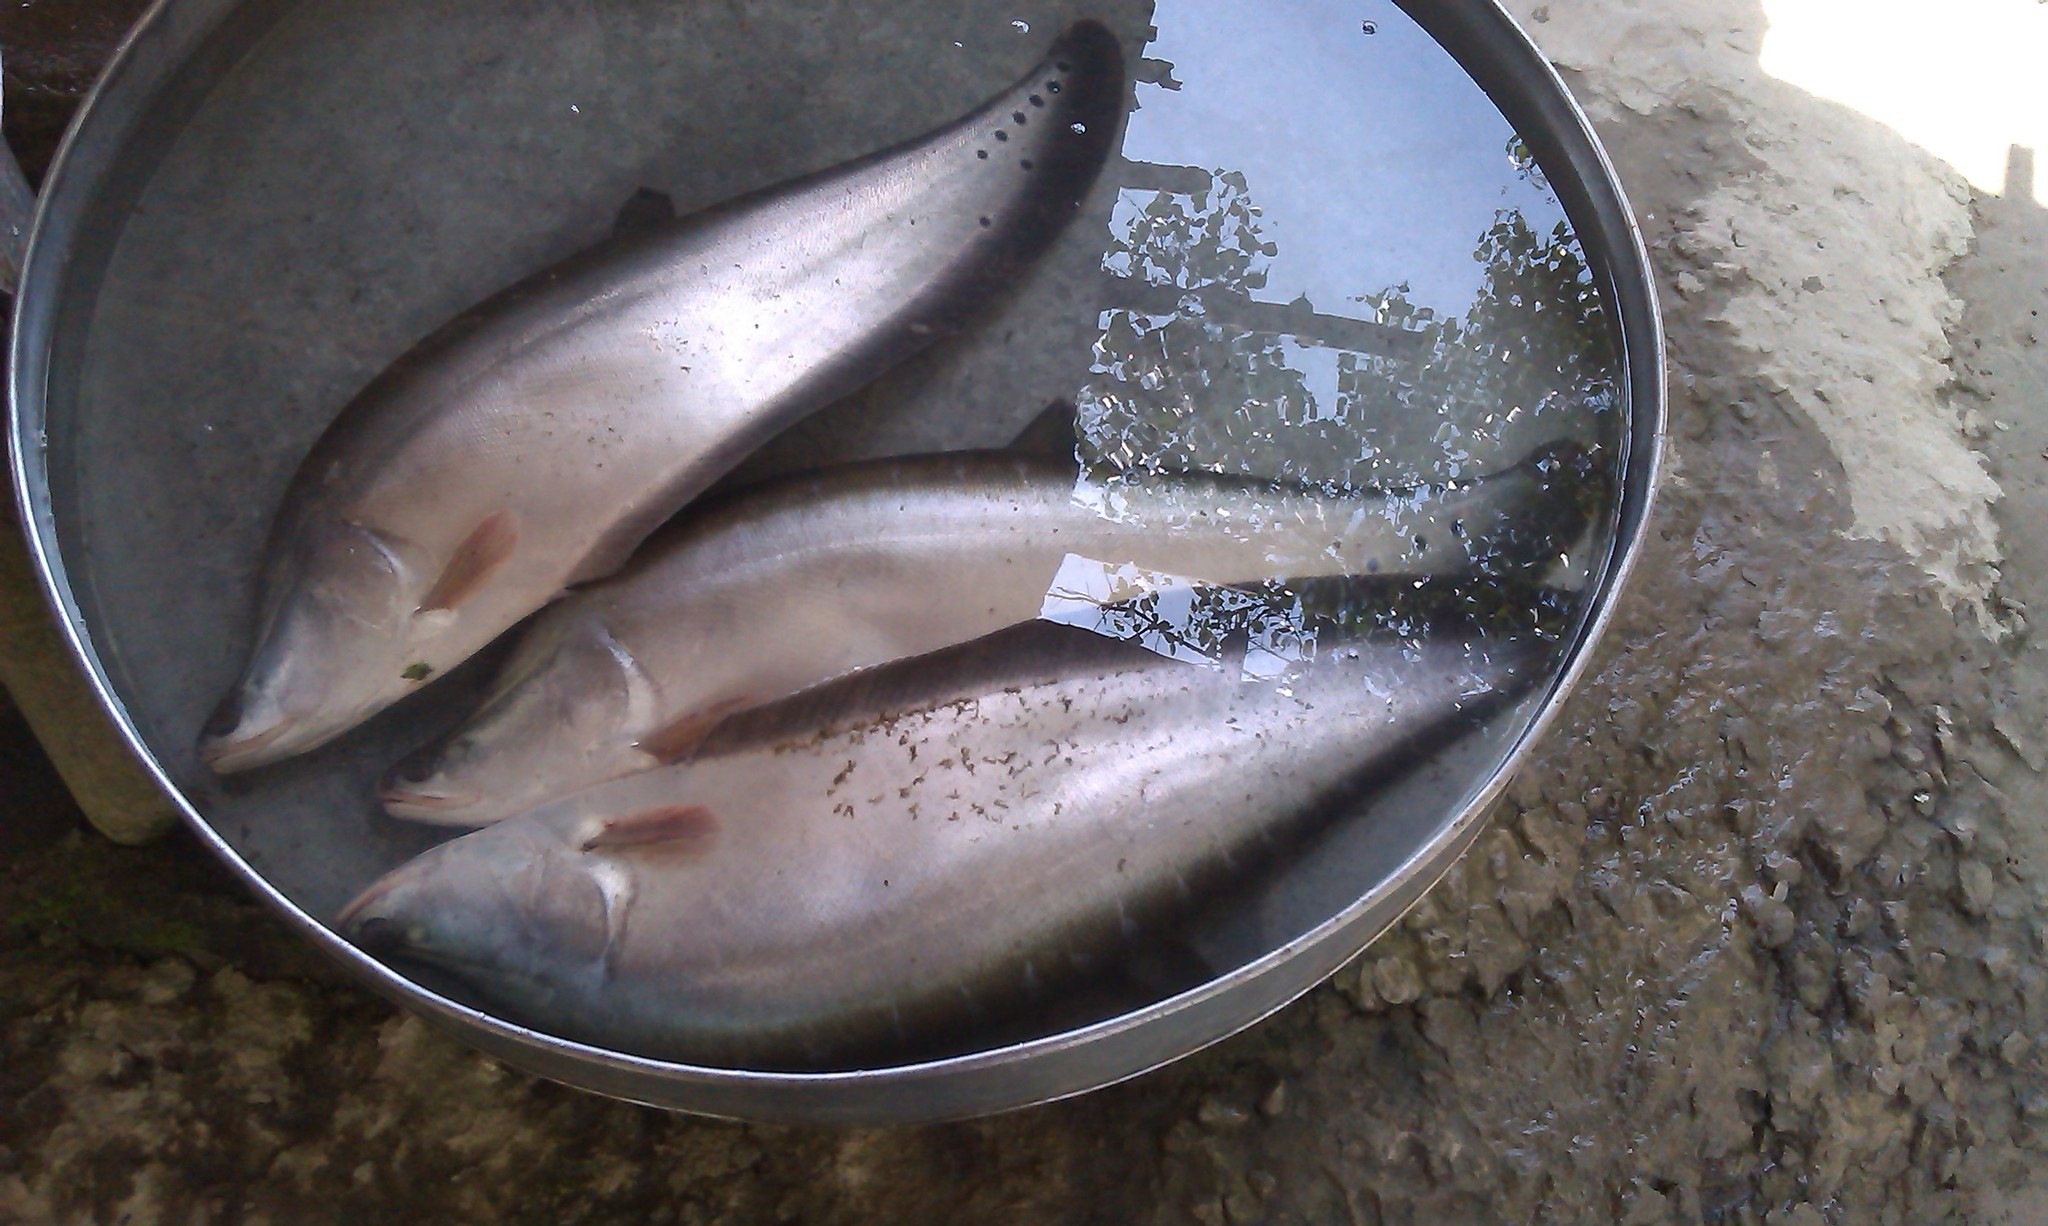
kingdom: Animalia
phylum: Chordata
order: Osteoglossiformes
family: Notopteridae
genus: Chitala
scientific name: Chitala chitala
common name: Clown knifefish
